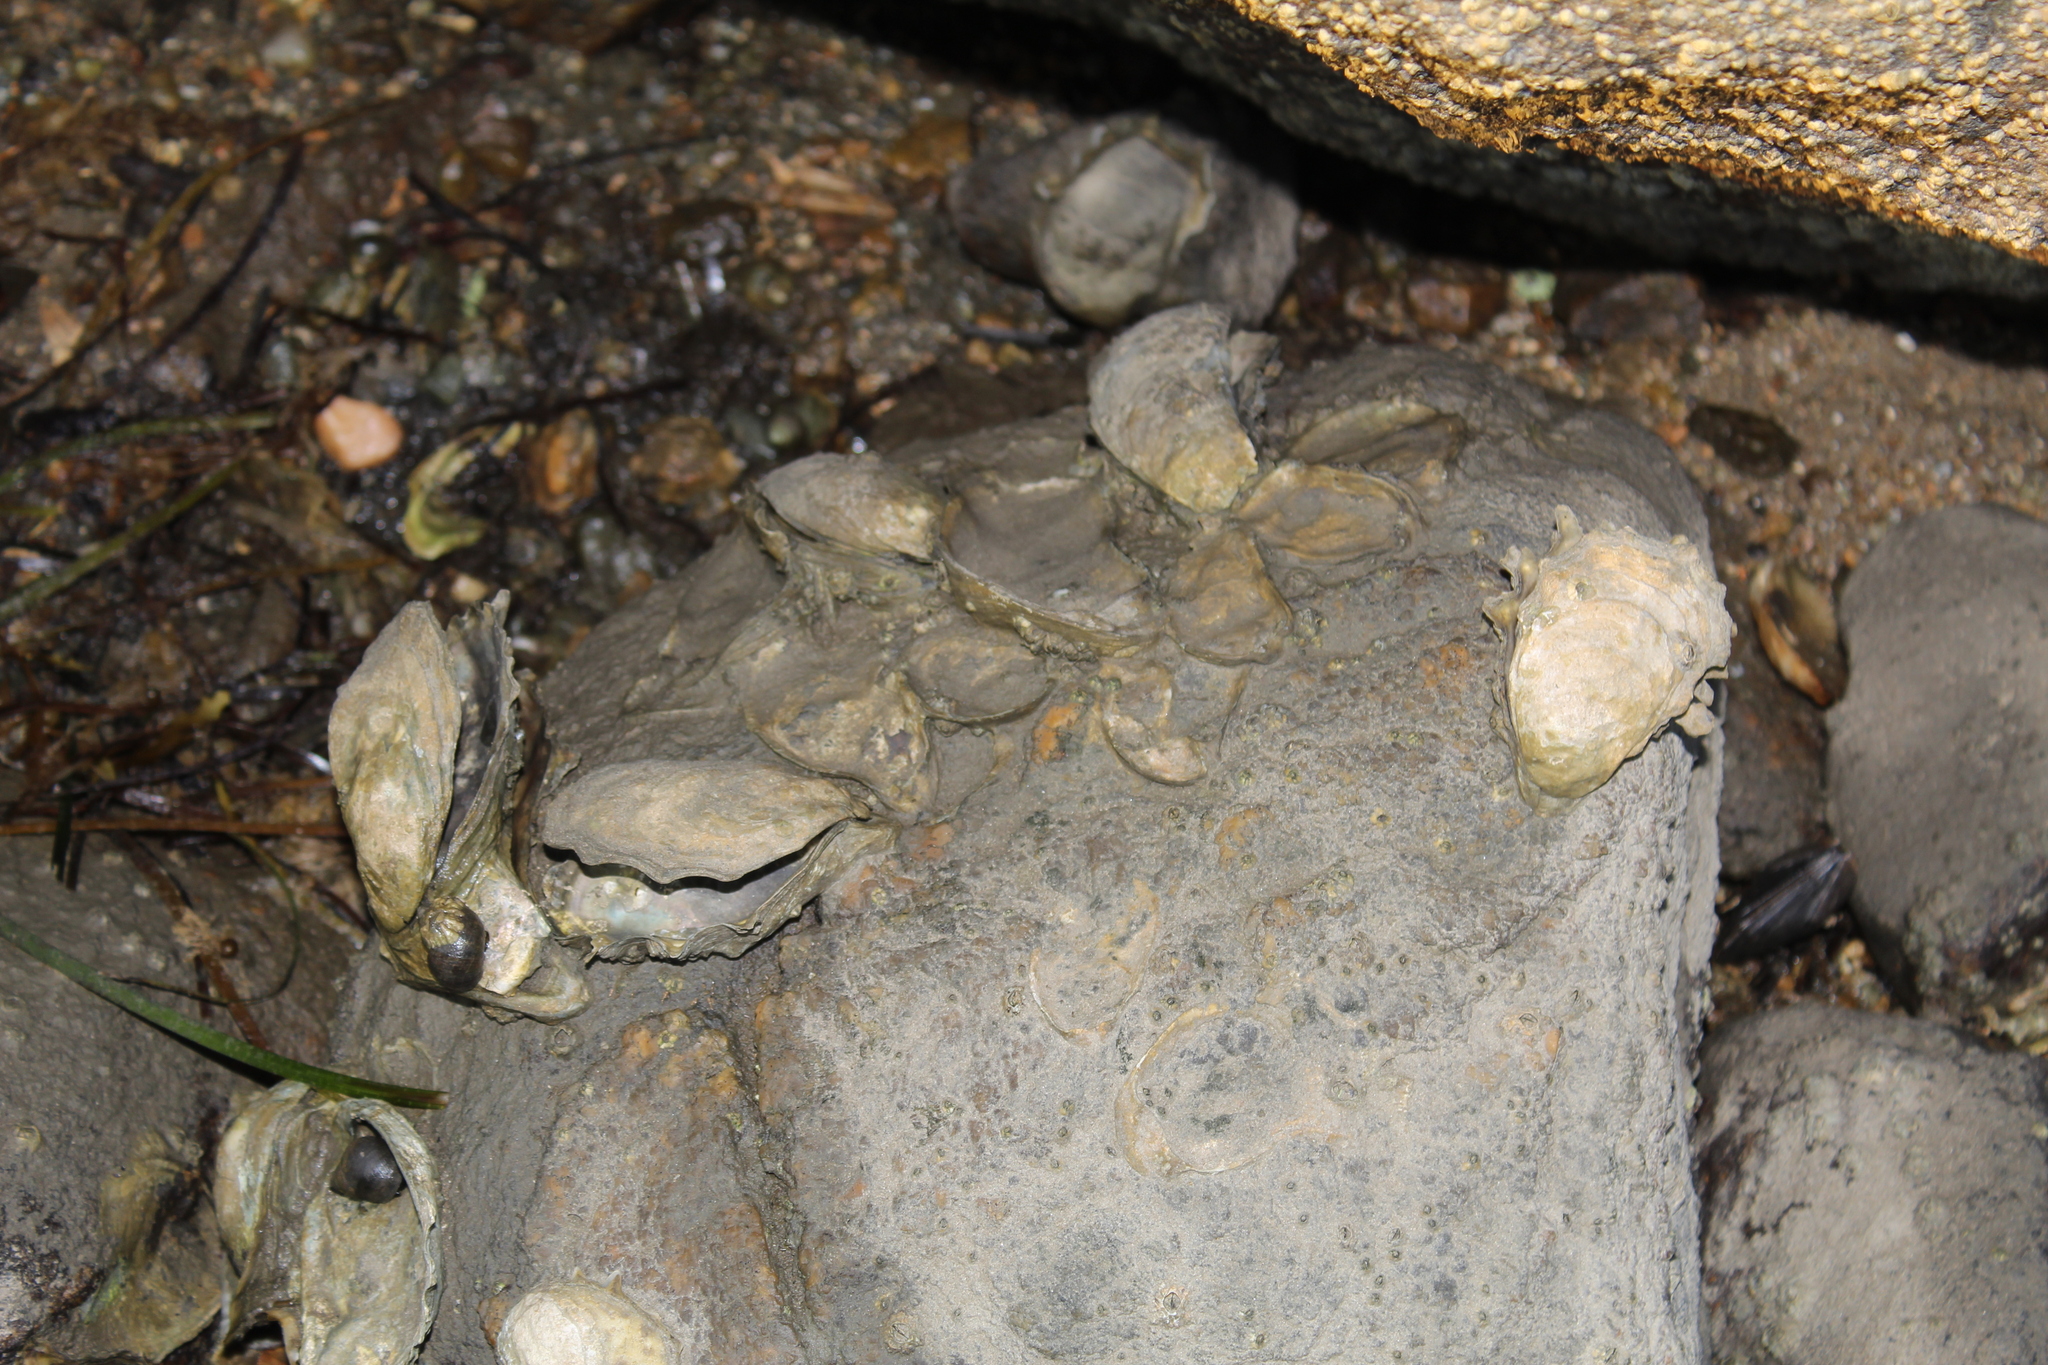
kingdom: Animalia
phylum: Mollusca
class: Bivalvia
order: Ostreida
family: Ostreidae
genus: Crassostrea
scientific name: Crassostrea virginica
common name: American oyster
